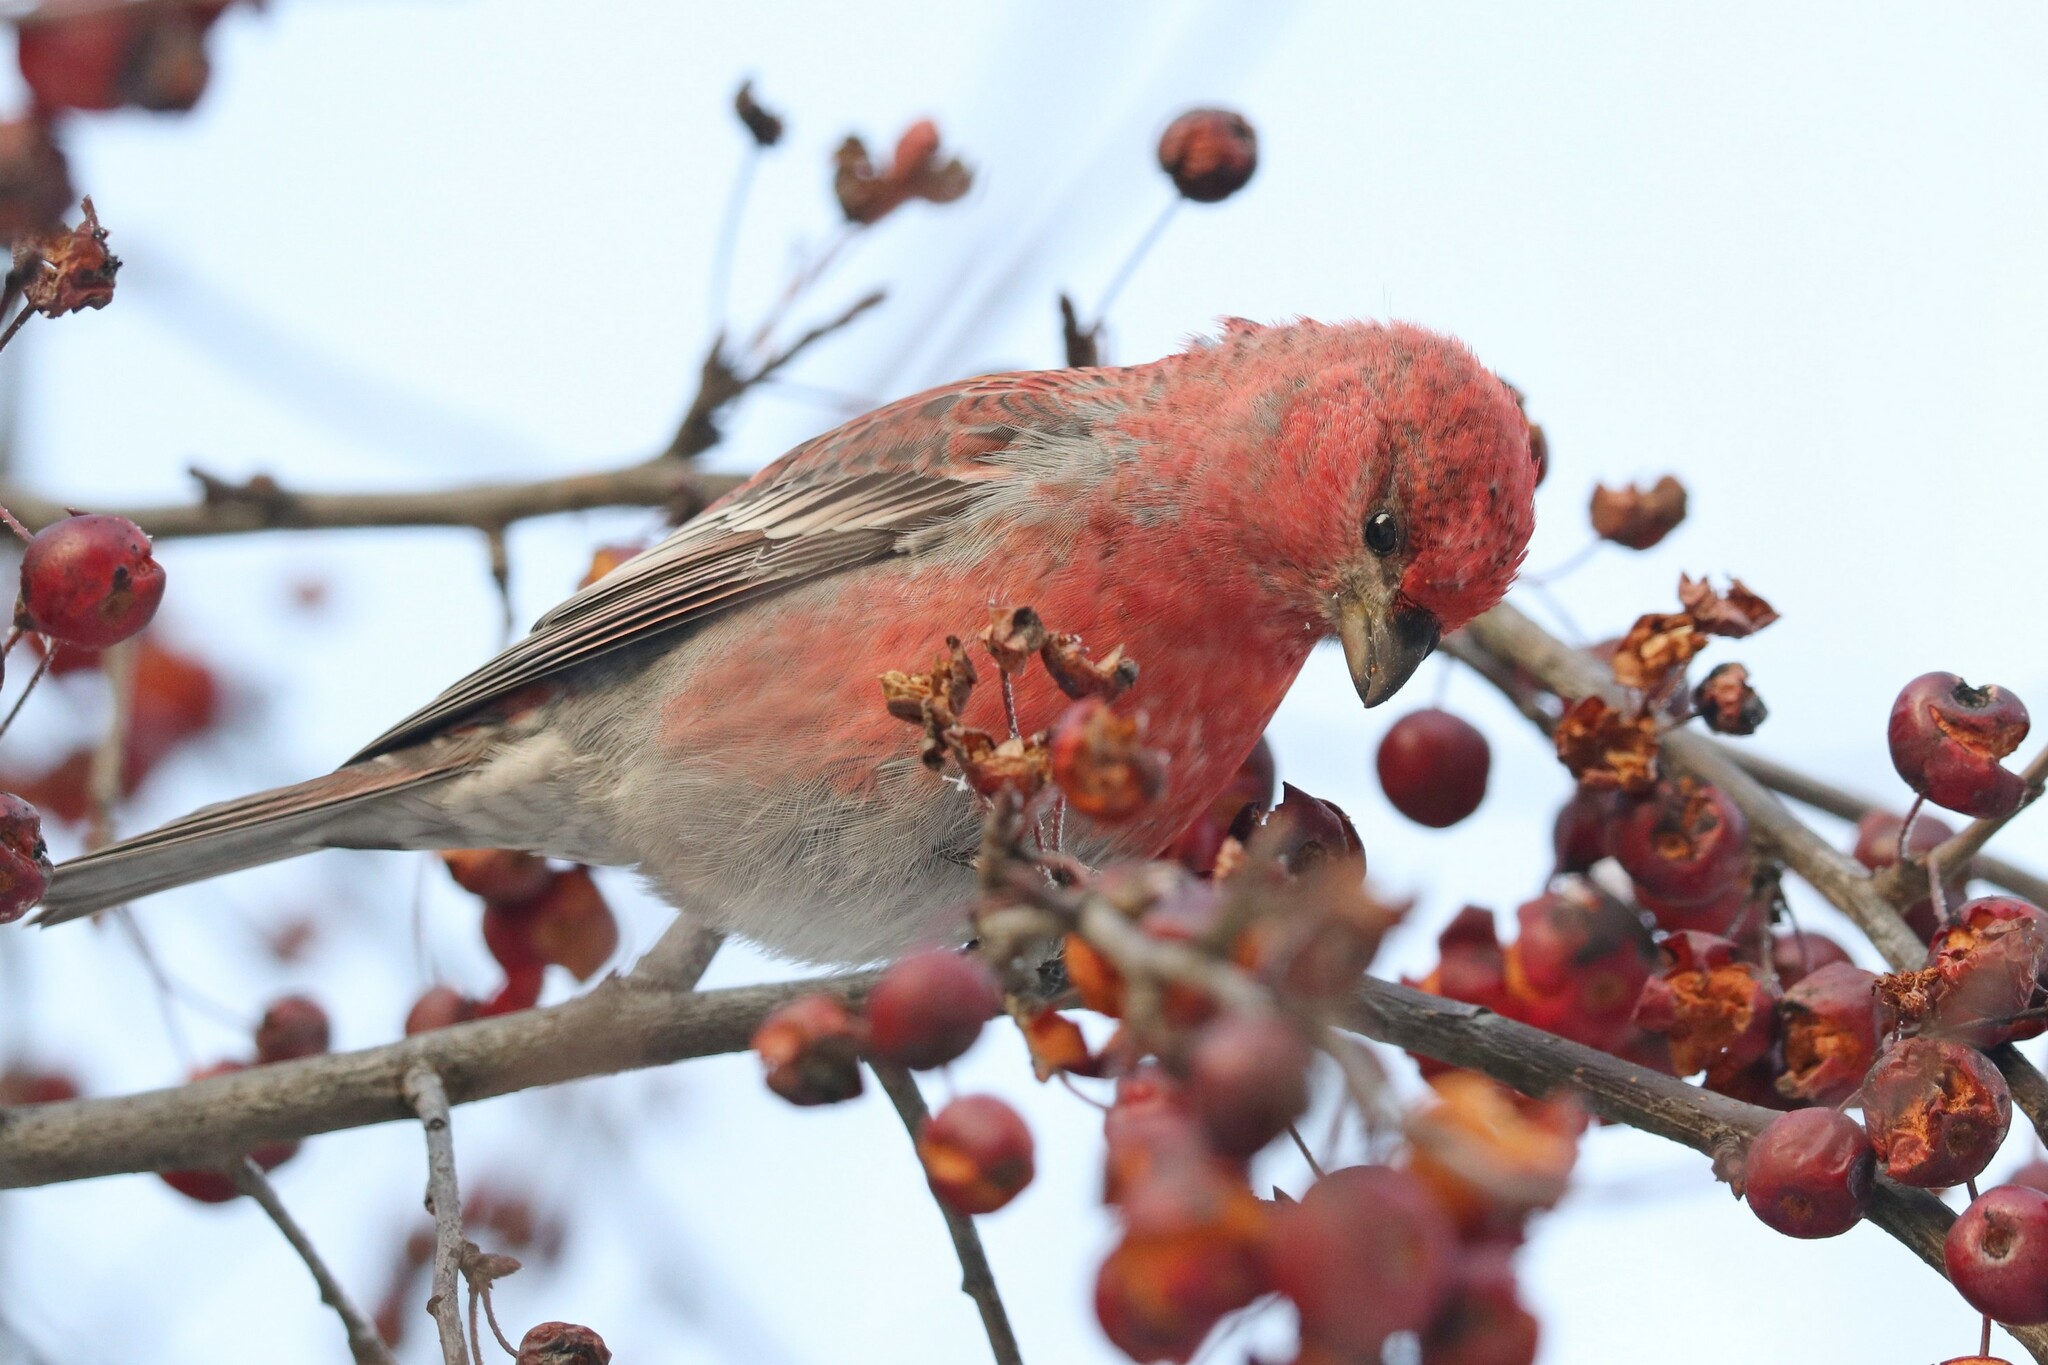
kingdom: Animalia
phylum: Chordata
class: Aves
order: Passeriformes
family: Fringillidae
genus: Pinicola
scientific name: Pinicola enucleator
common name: Pine grosbeak
